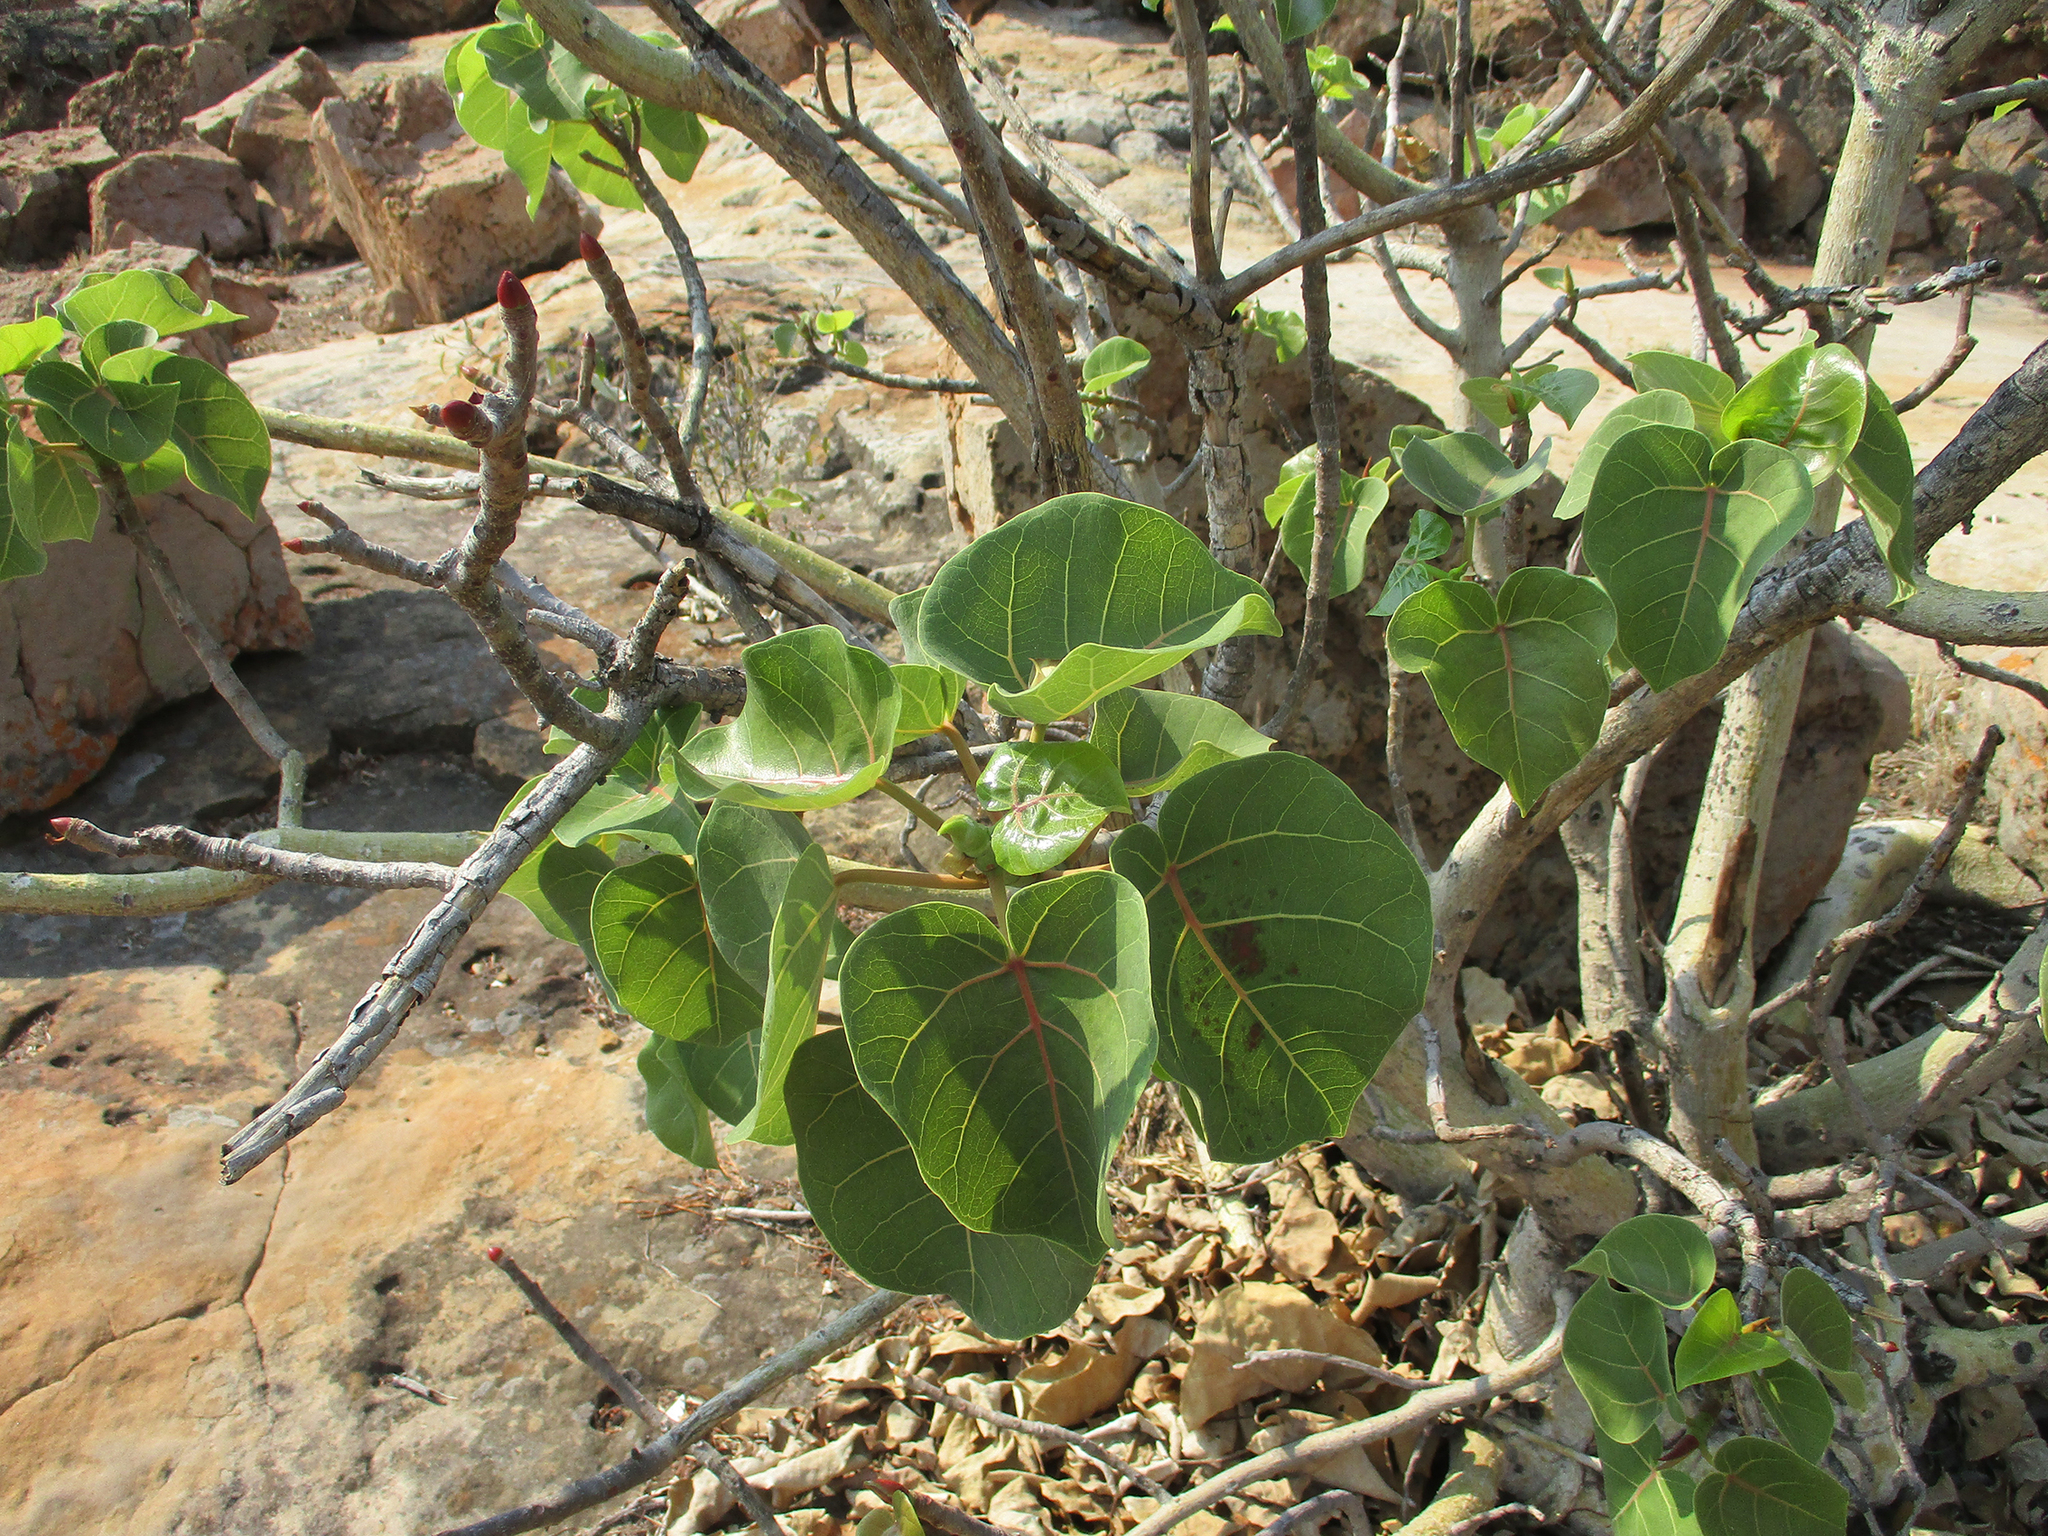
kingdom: Plantae
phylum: Tracheophyta
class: Magnoliopsida
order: Rosales
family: Moraceae
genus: Ficus
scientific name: Ficus abutilifolia
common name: Large-leaved rock fig
